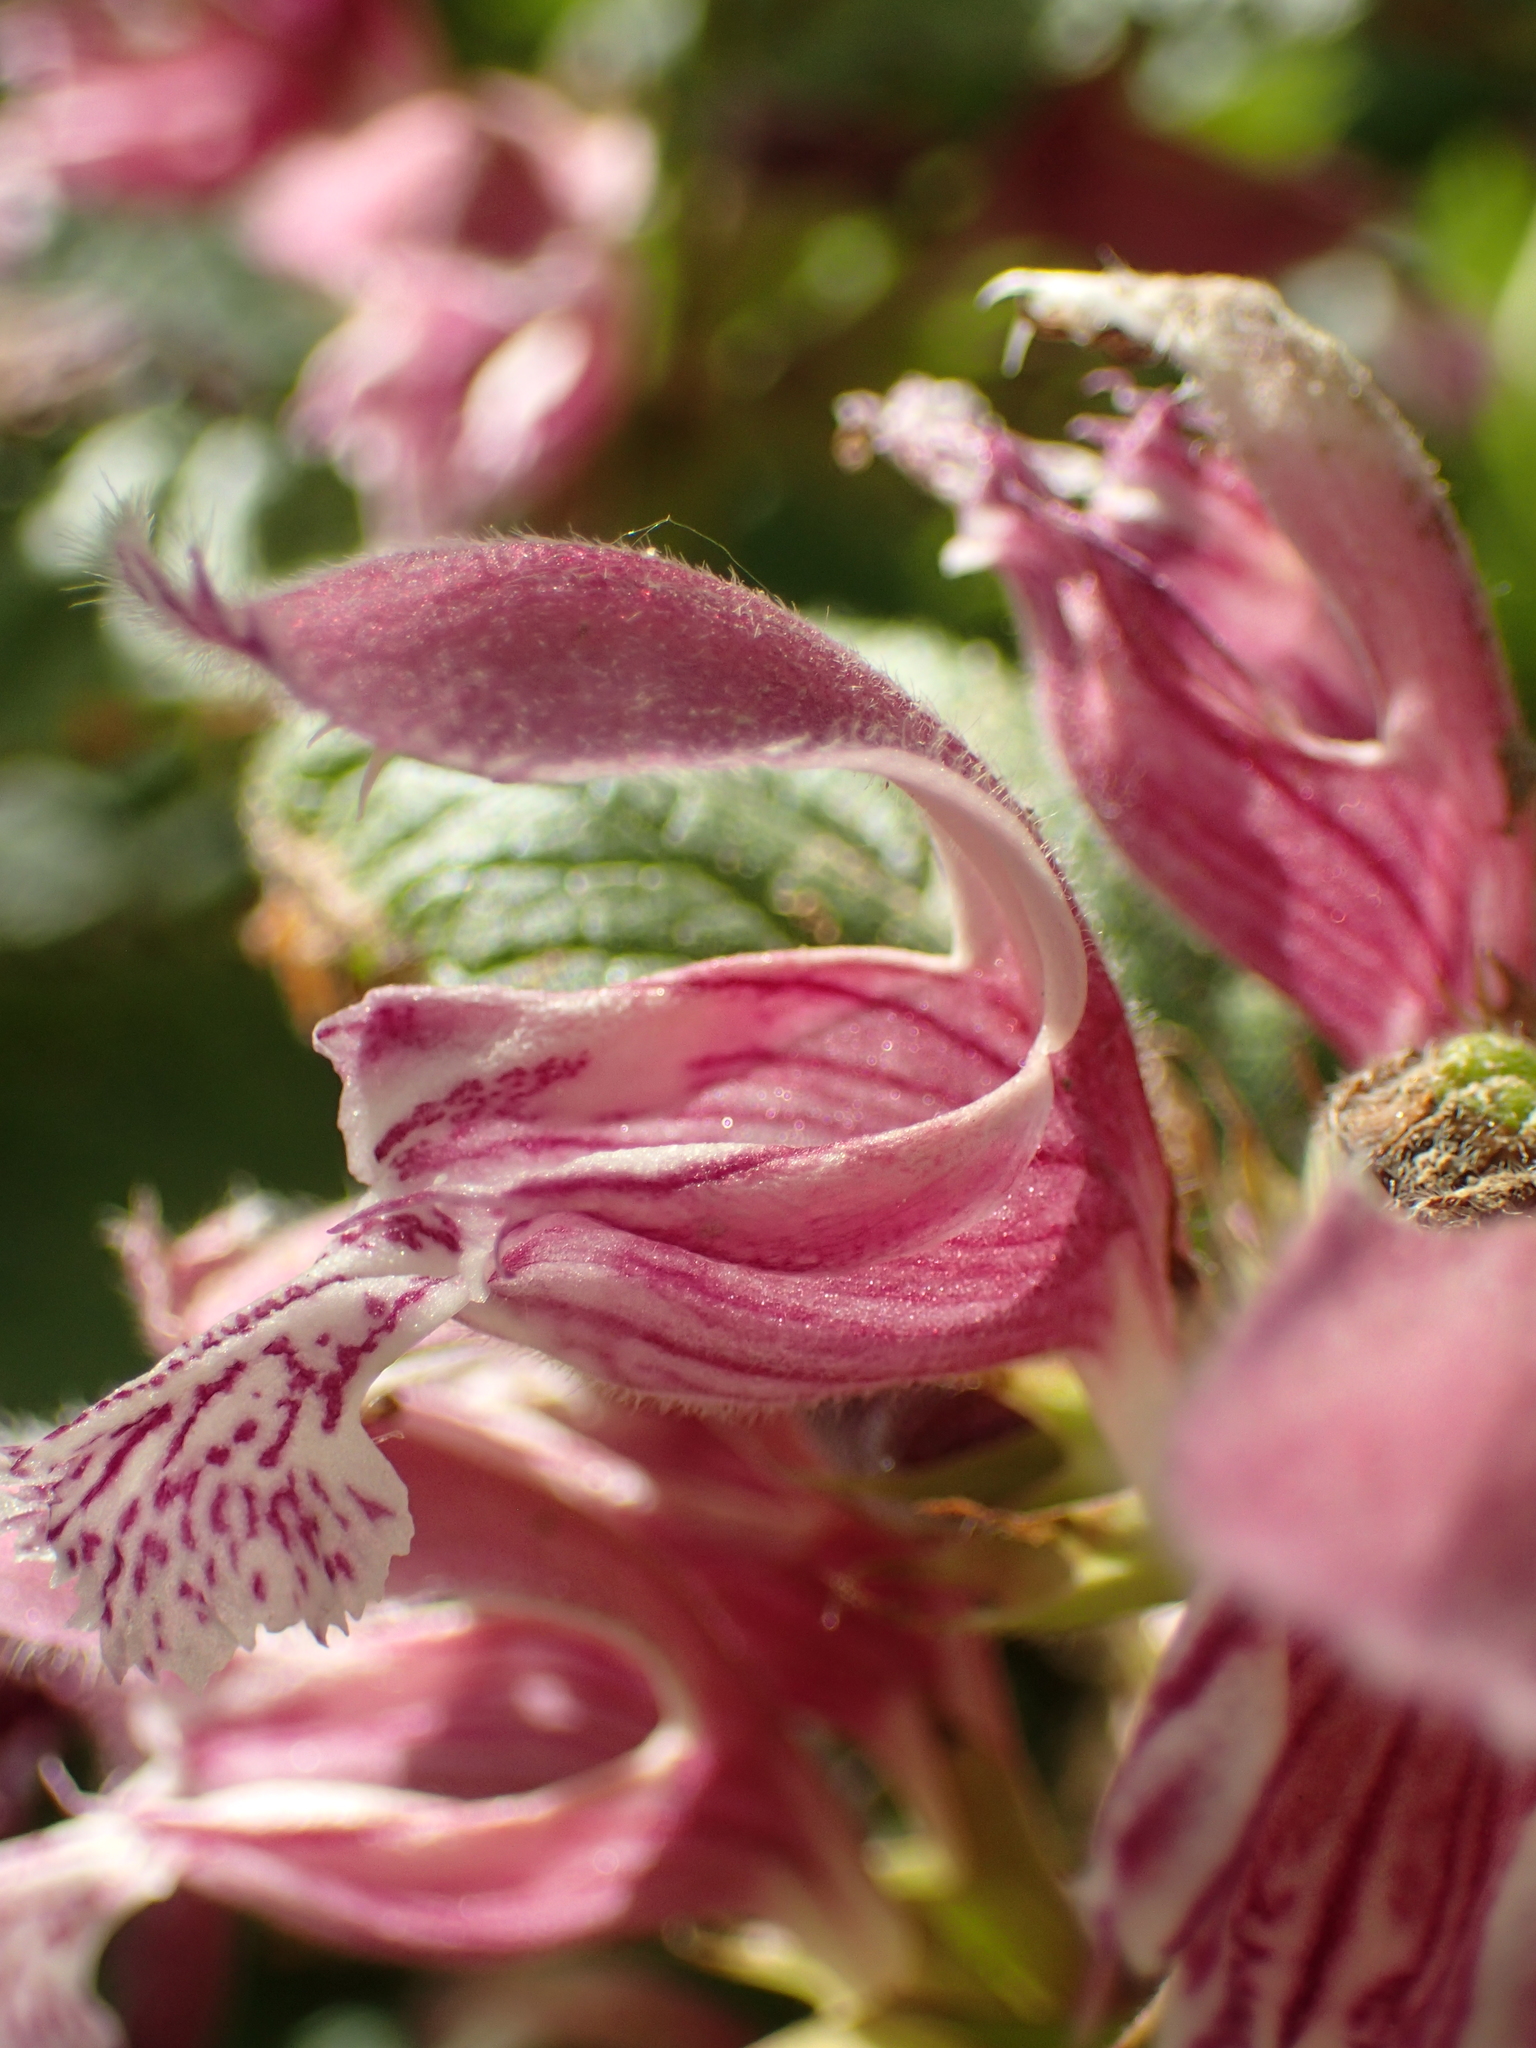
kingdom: Plantae
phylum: Tracheophyta
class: Magnoliopsida
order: Lamiales
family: Lamiaceae
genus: Lamium
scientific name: Lamium orvala
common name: Balm-leaved archangel
